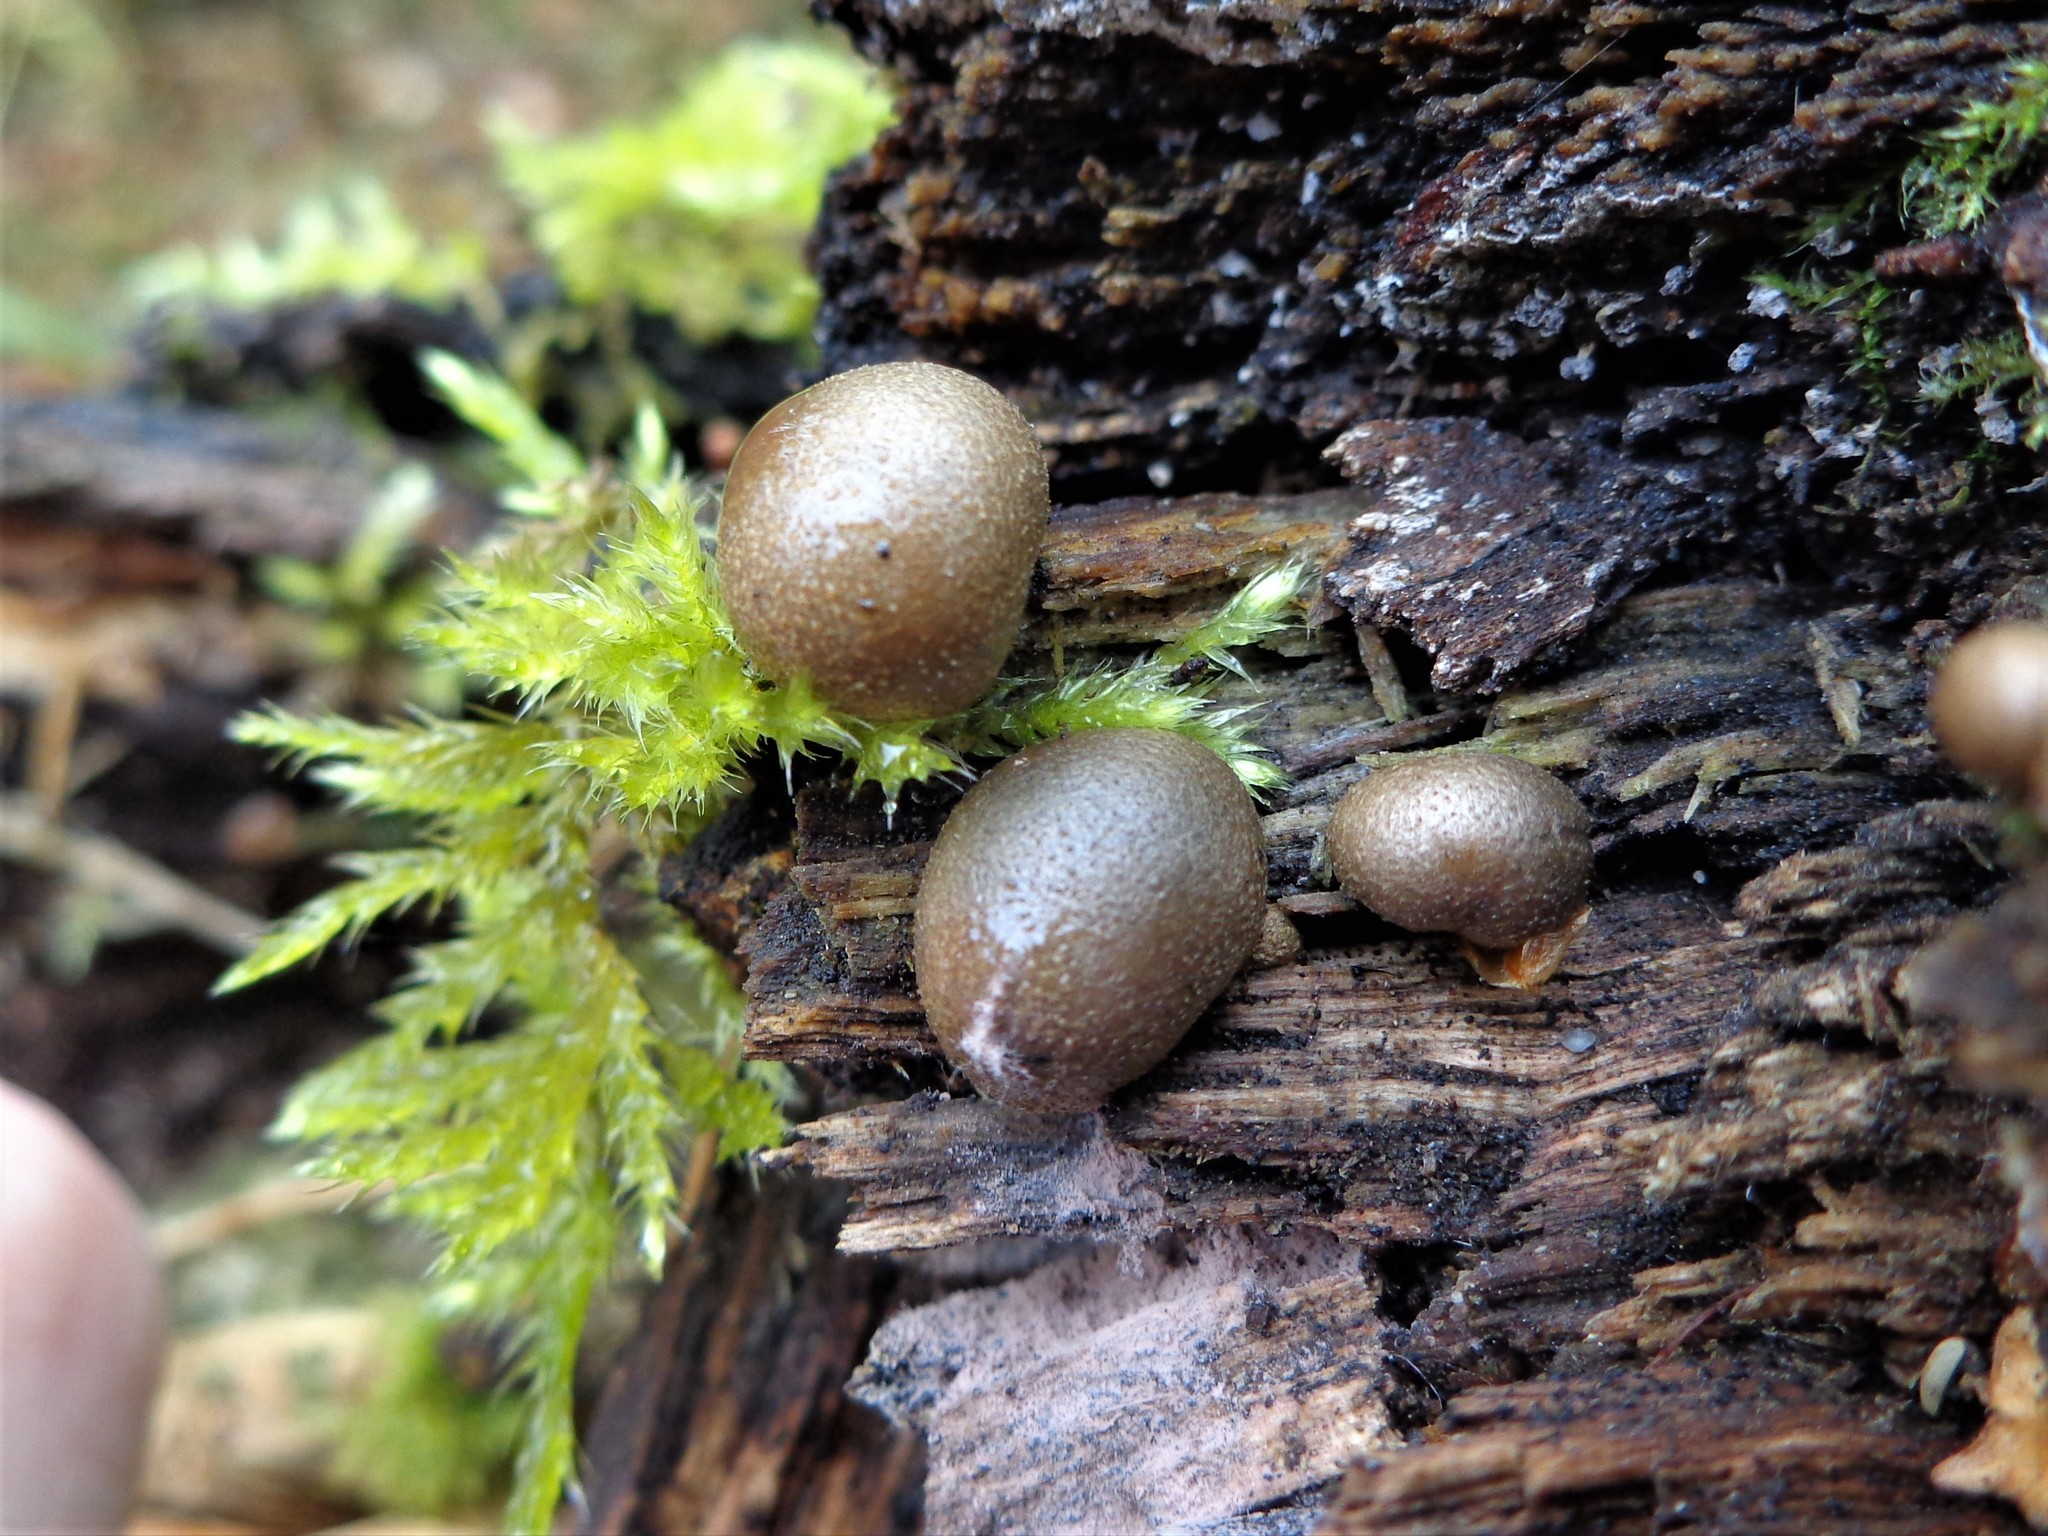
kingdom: Protozoa
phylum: Mycetozoa
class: Myxomycetes
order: Cribrariales
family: Tubiferaceae
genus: Lycogala
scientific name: Lycogala epidendrum
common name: Wolf's milk
